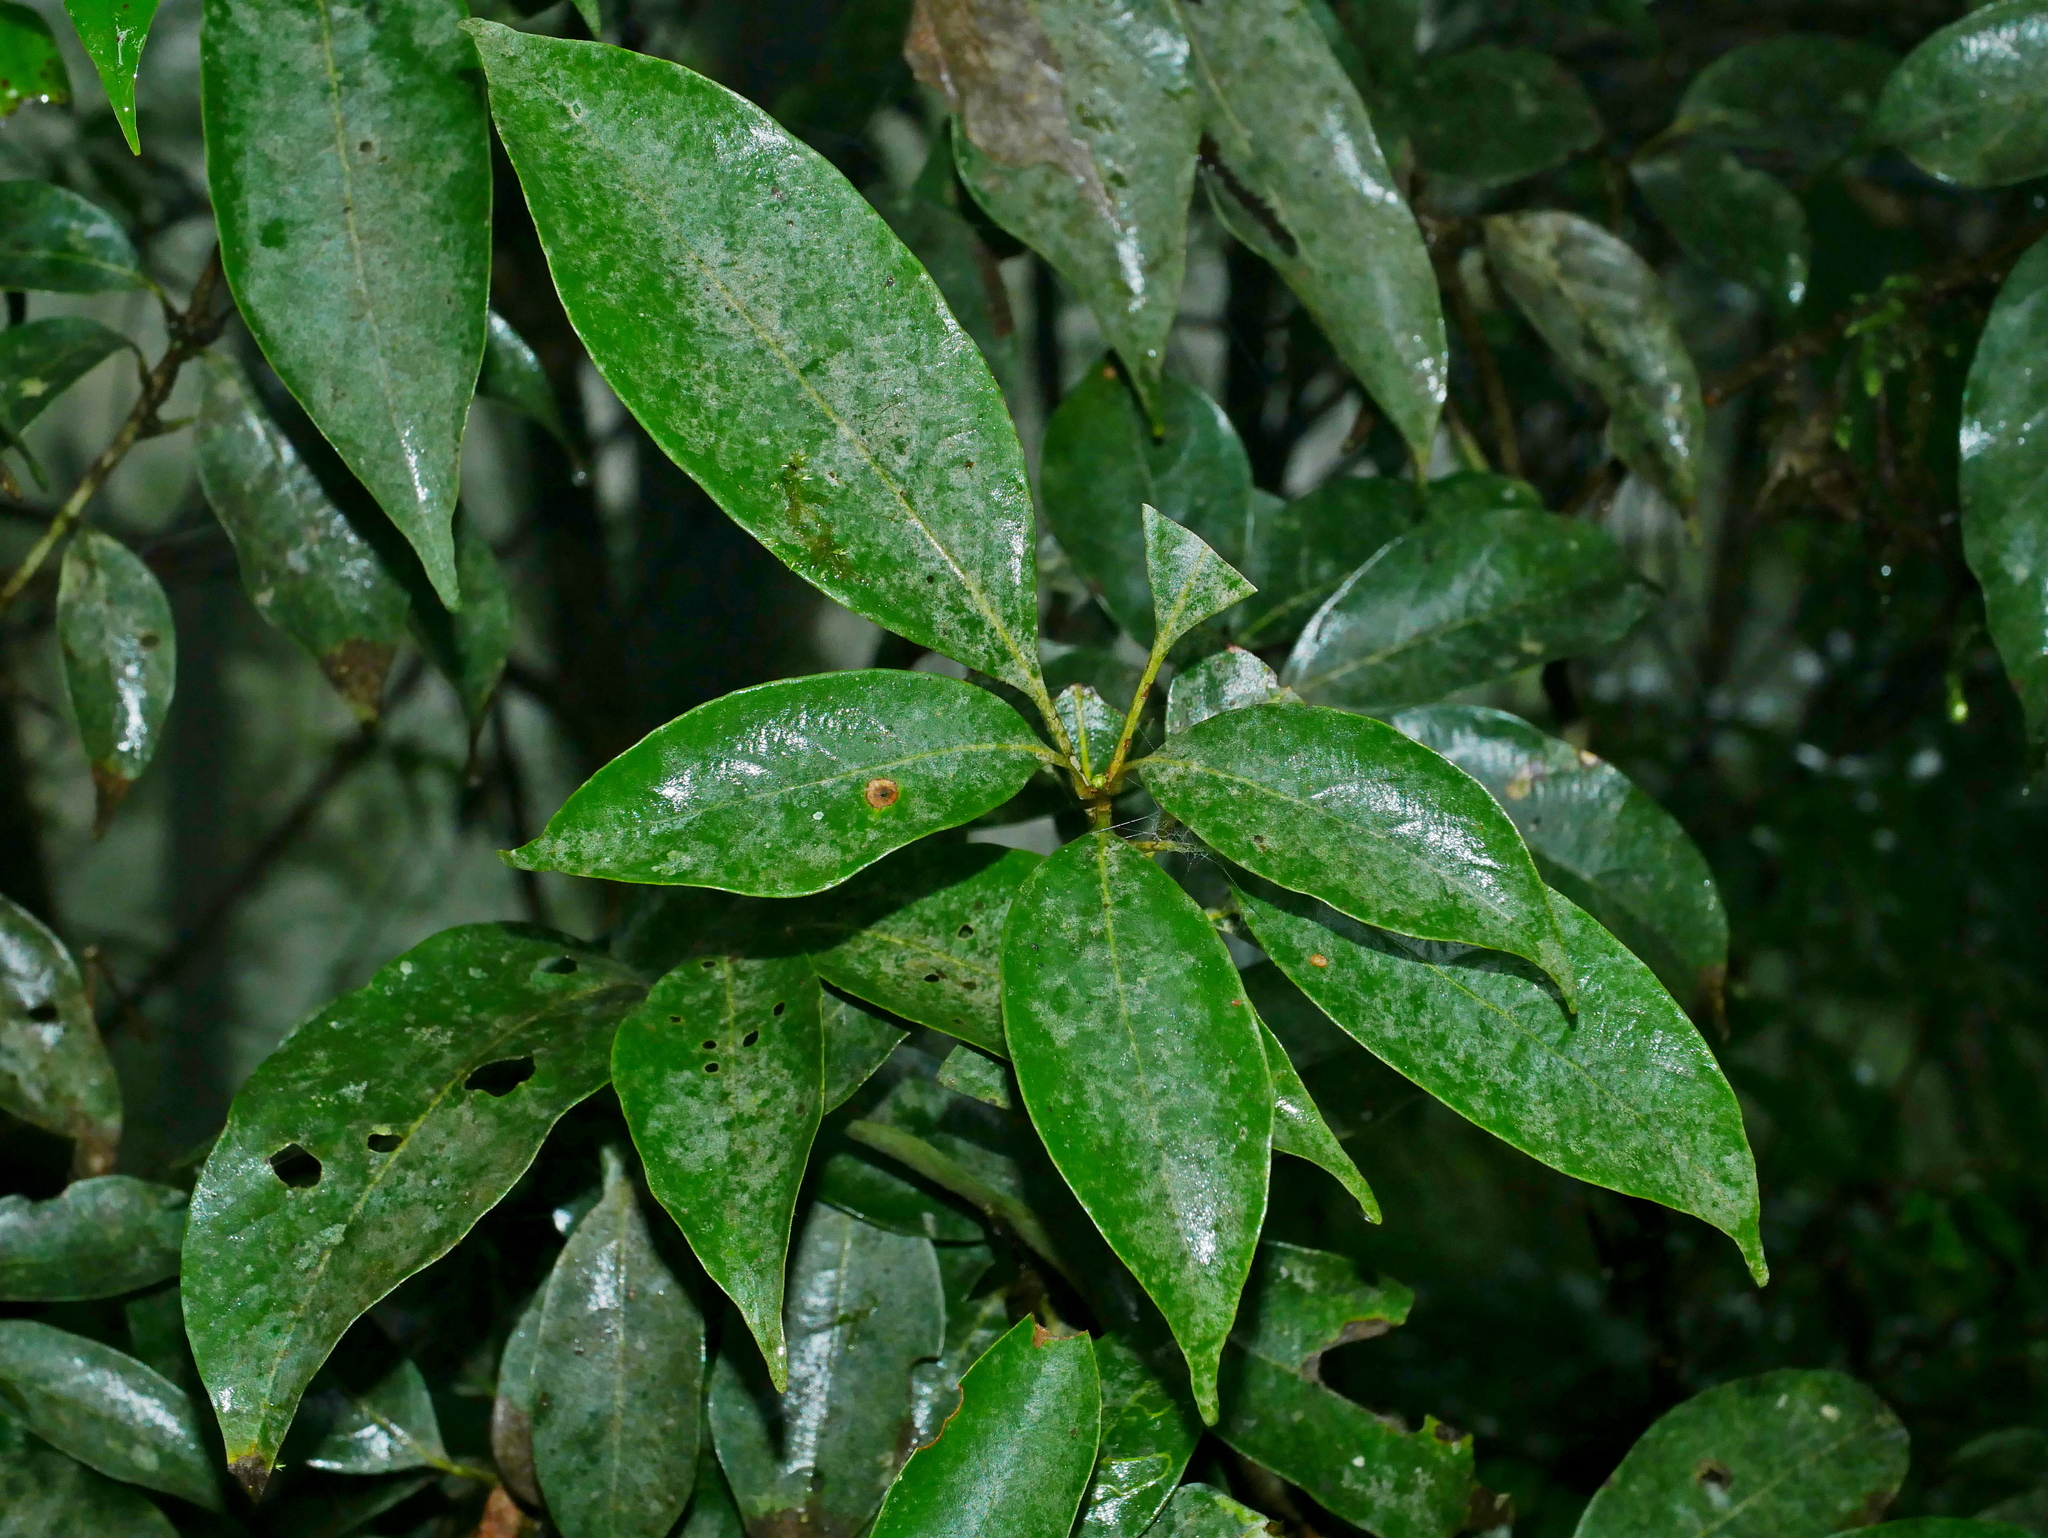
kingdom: Plantae
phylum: Tracheophyta
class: Magnoliopsida
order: Fagales
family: Fagaceae
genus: Lithocarpus
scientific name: Lithocarpus taitoensis
